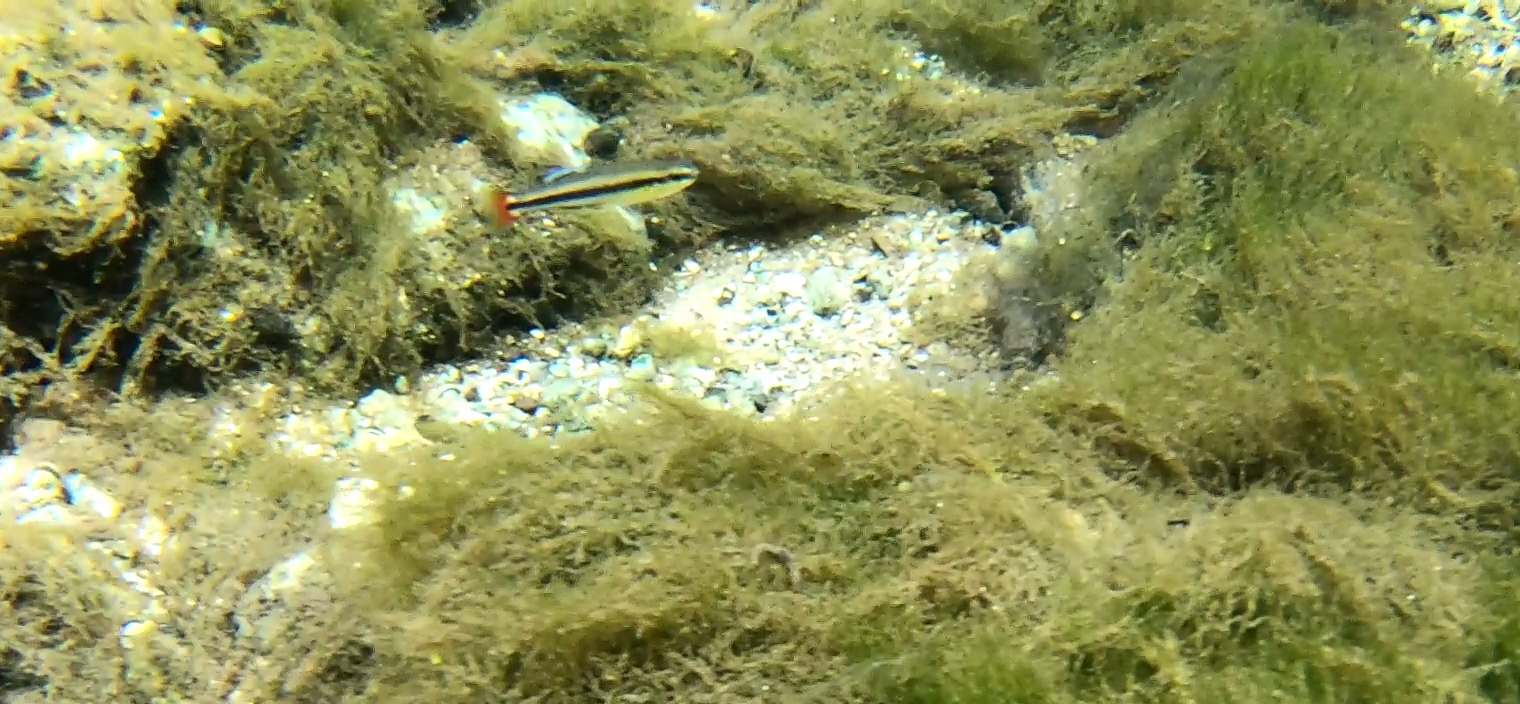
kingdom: Animalia
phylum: Chordata
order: Cyprinodontiformes
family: Fundulidae
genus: Lucania
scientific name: Lucania goodei
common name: Bluefin killifish
